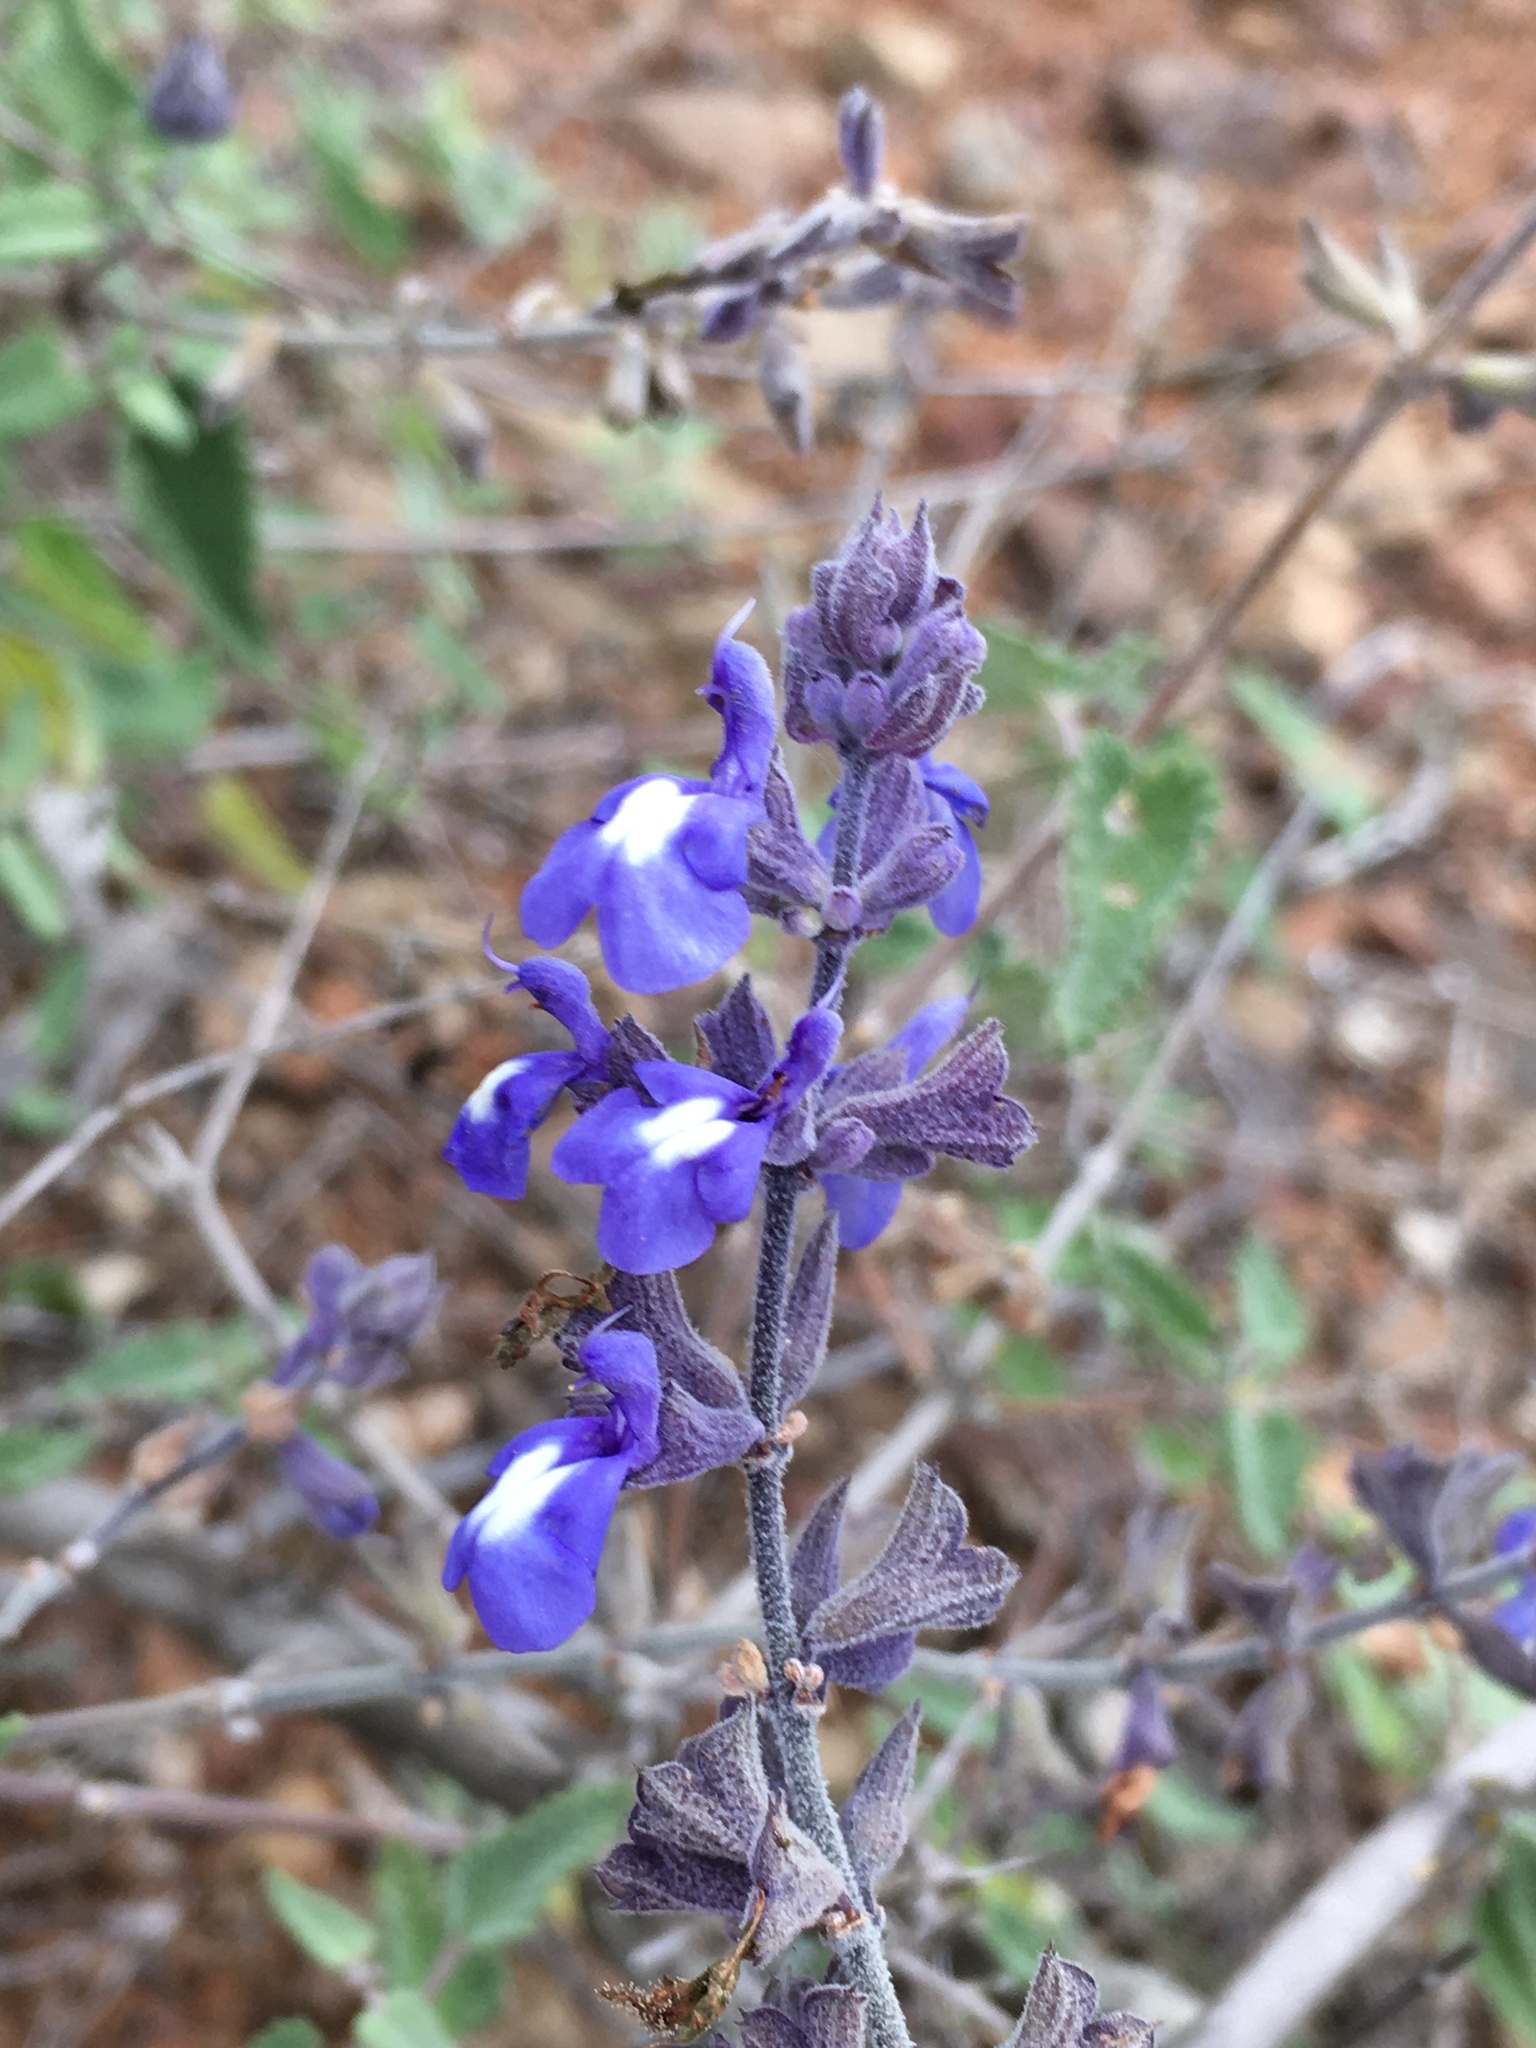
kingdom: Plantae
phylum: Tracheophyta
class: Magnoliopsida
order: Lamiales
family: Lamiaceae
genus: Salvia
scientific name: Salvia cuspidata
